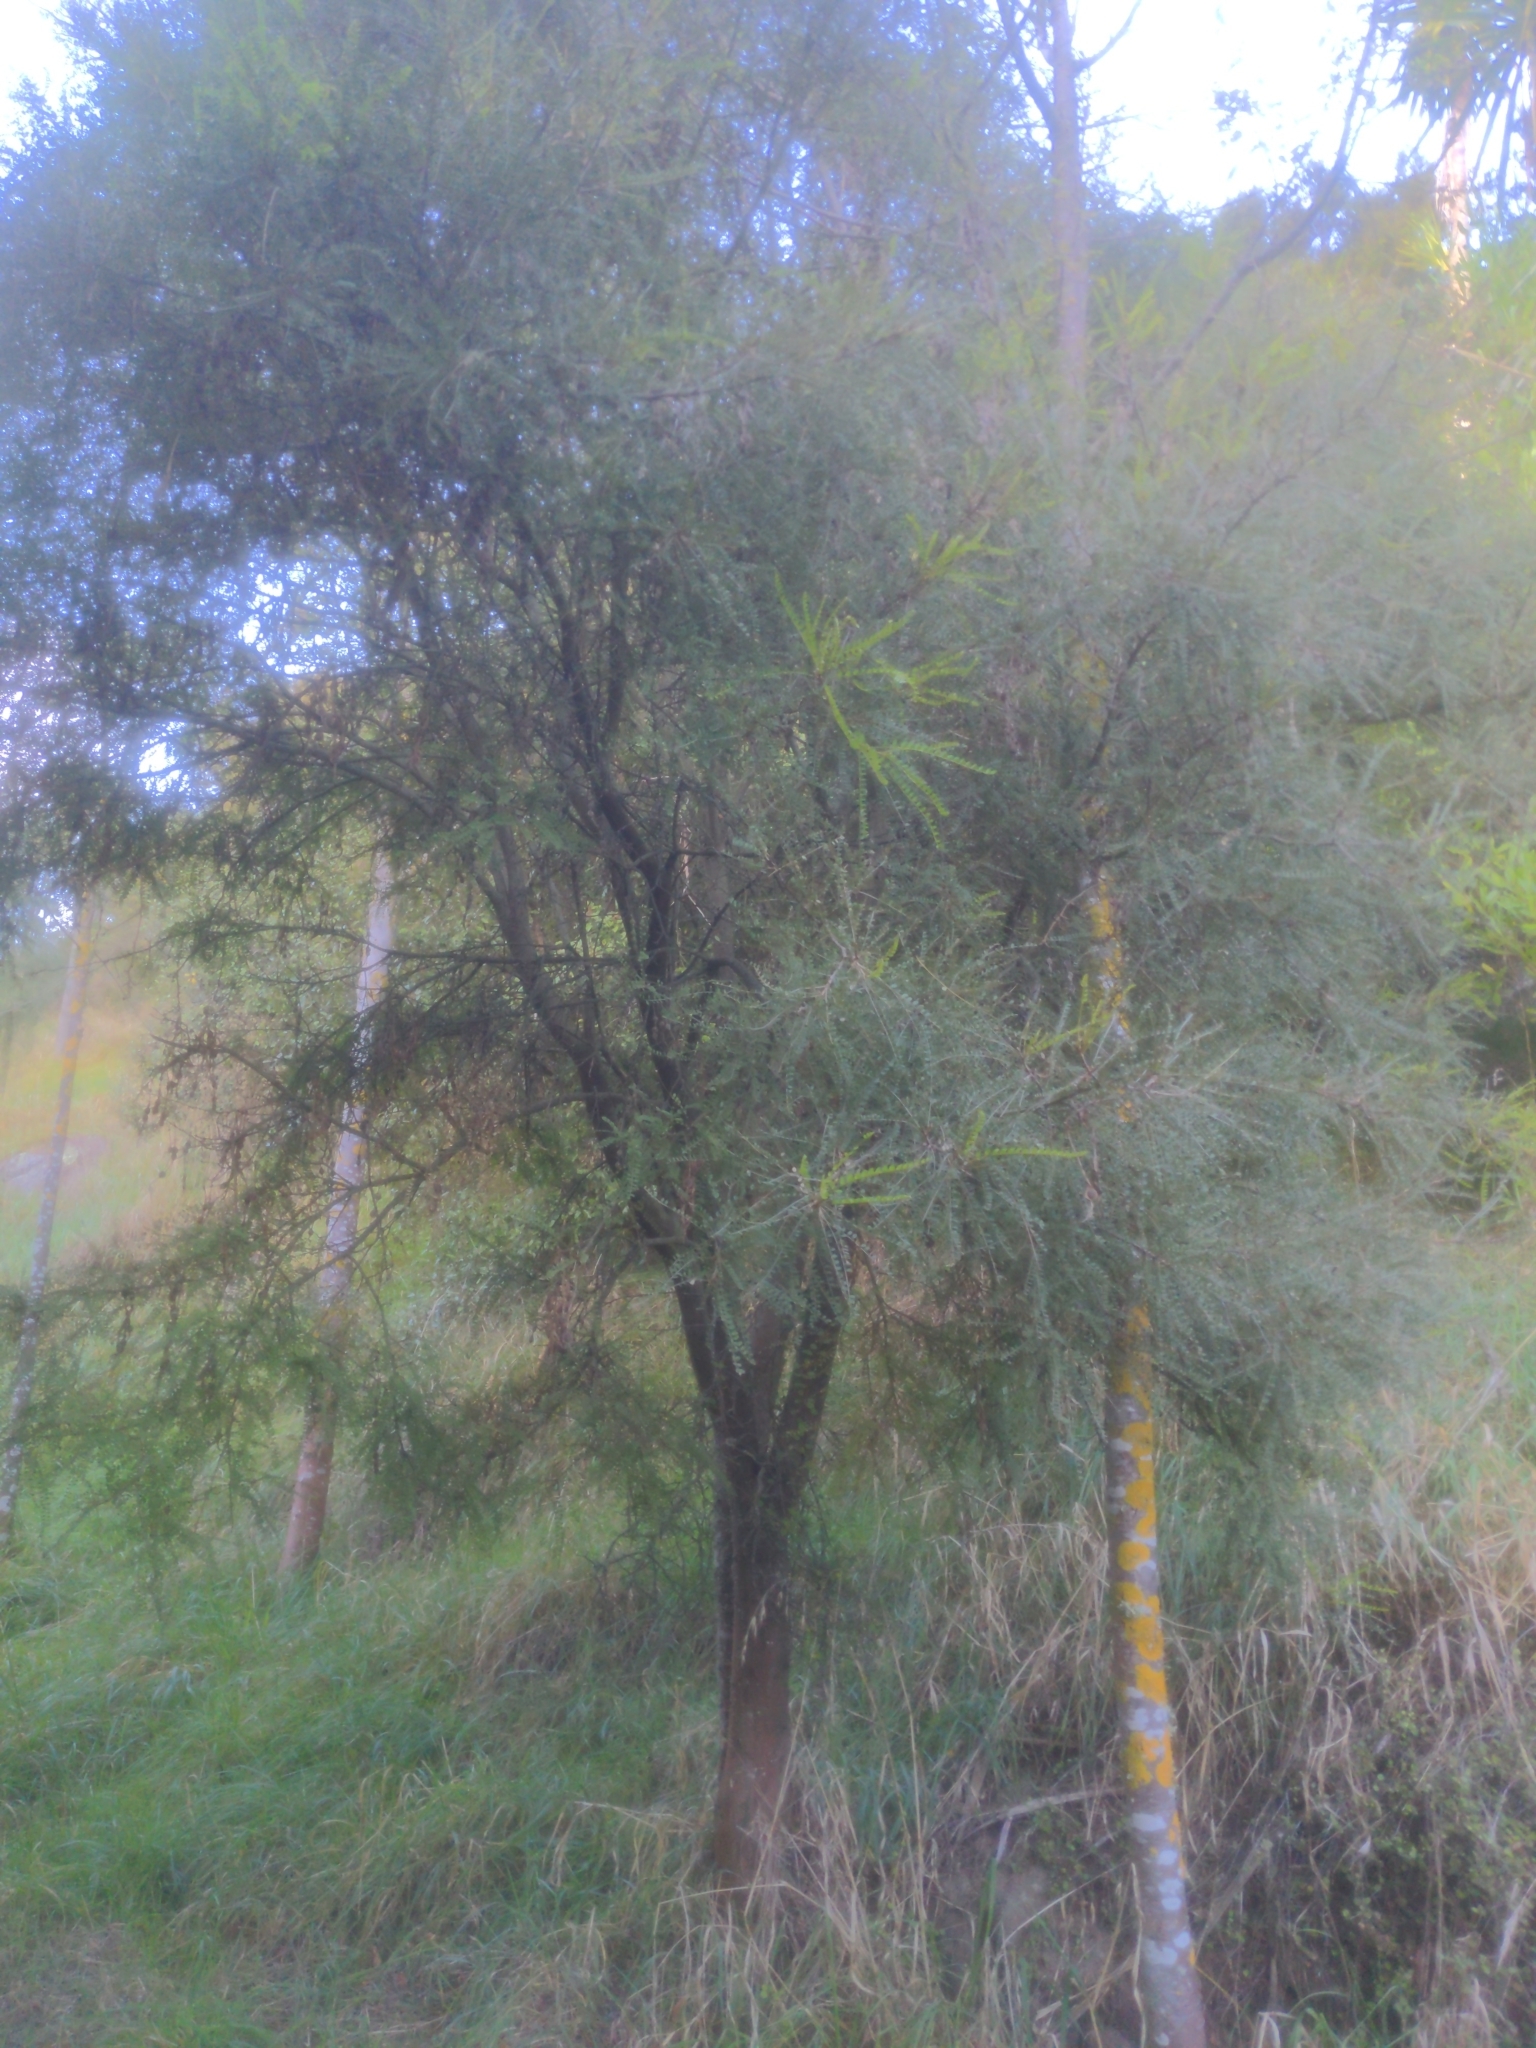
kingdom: Plantae
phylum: Tracheophyta
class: Magnoliopsida
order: Fabales
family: Fabaceae
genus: Sophora
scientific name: Sophora microphylla
